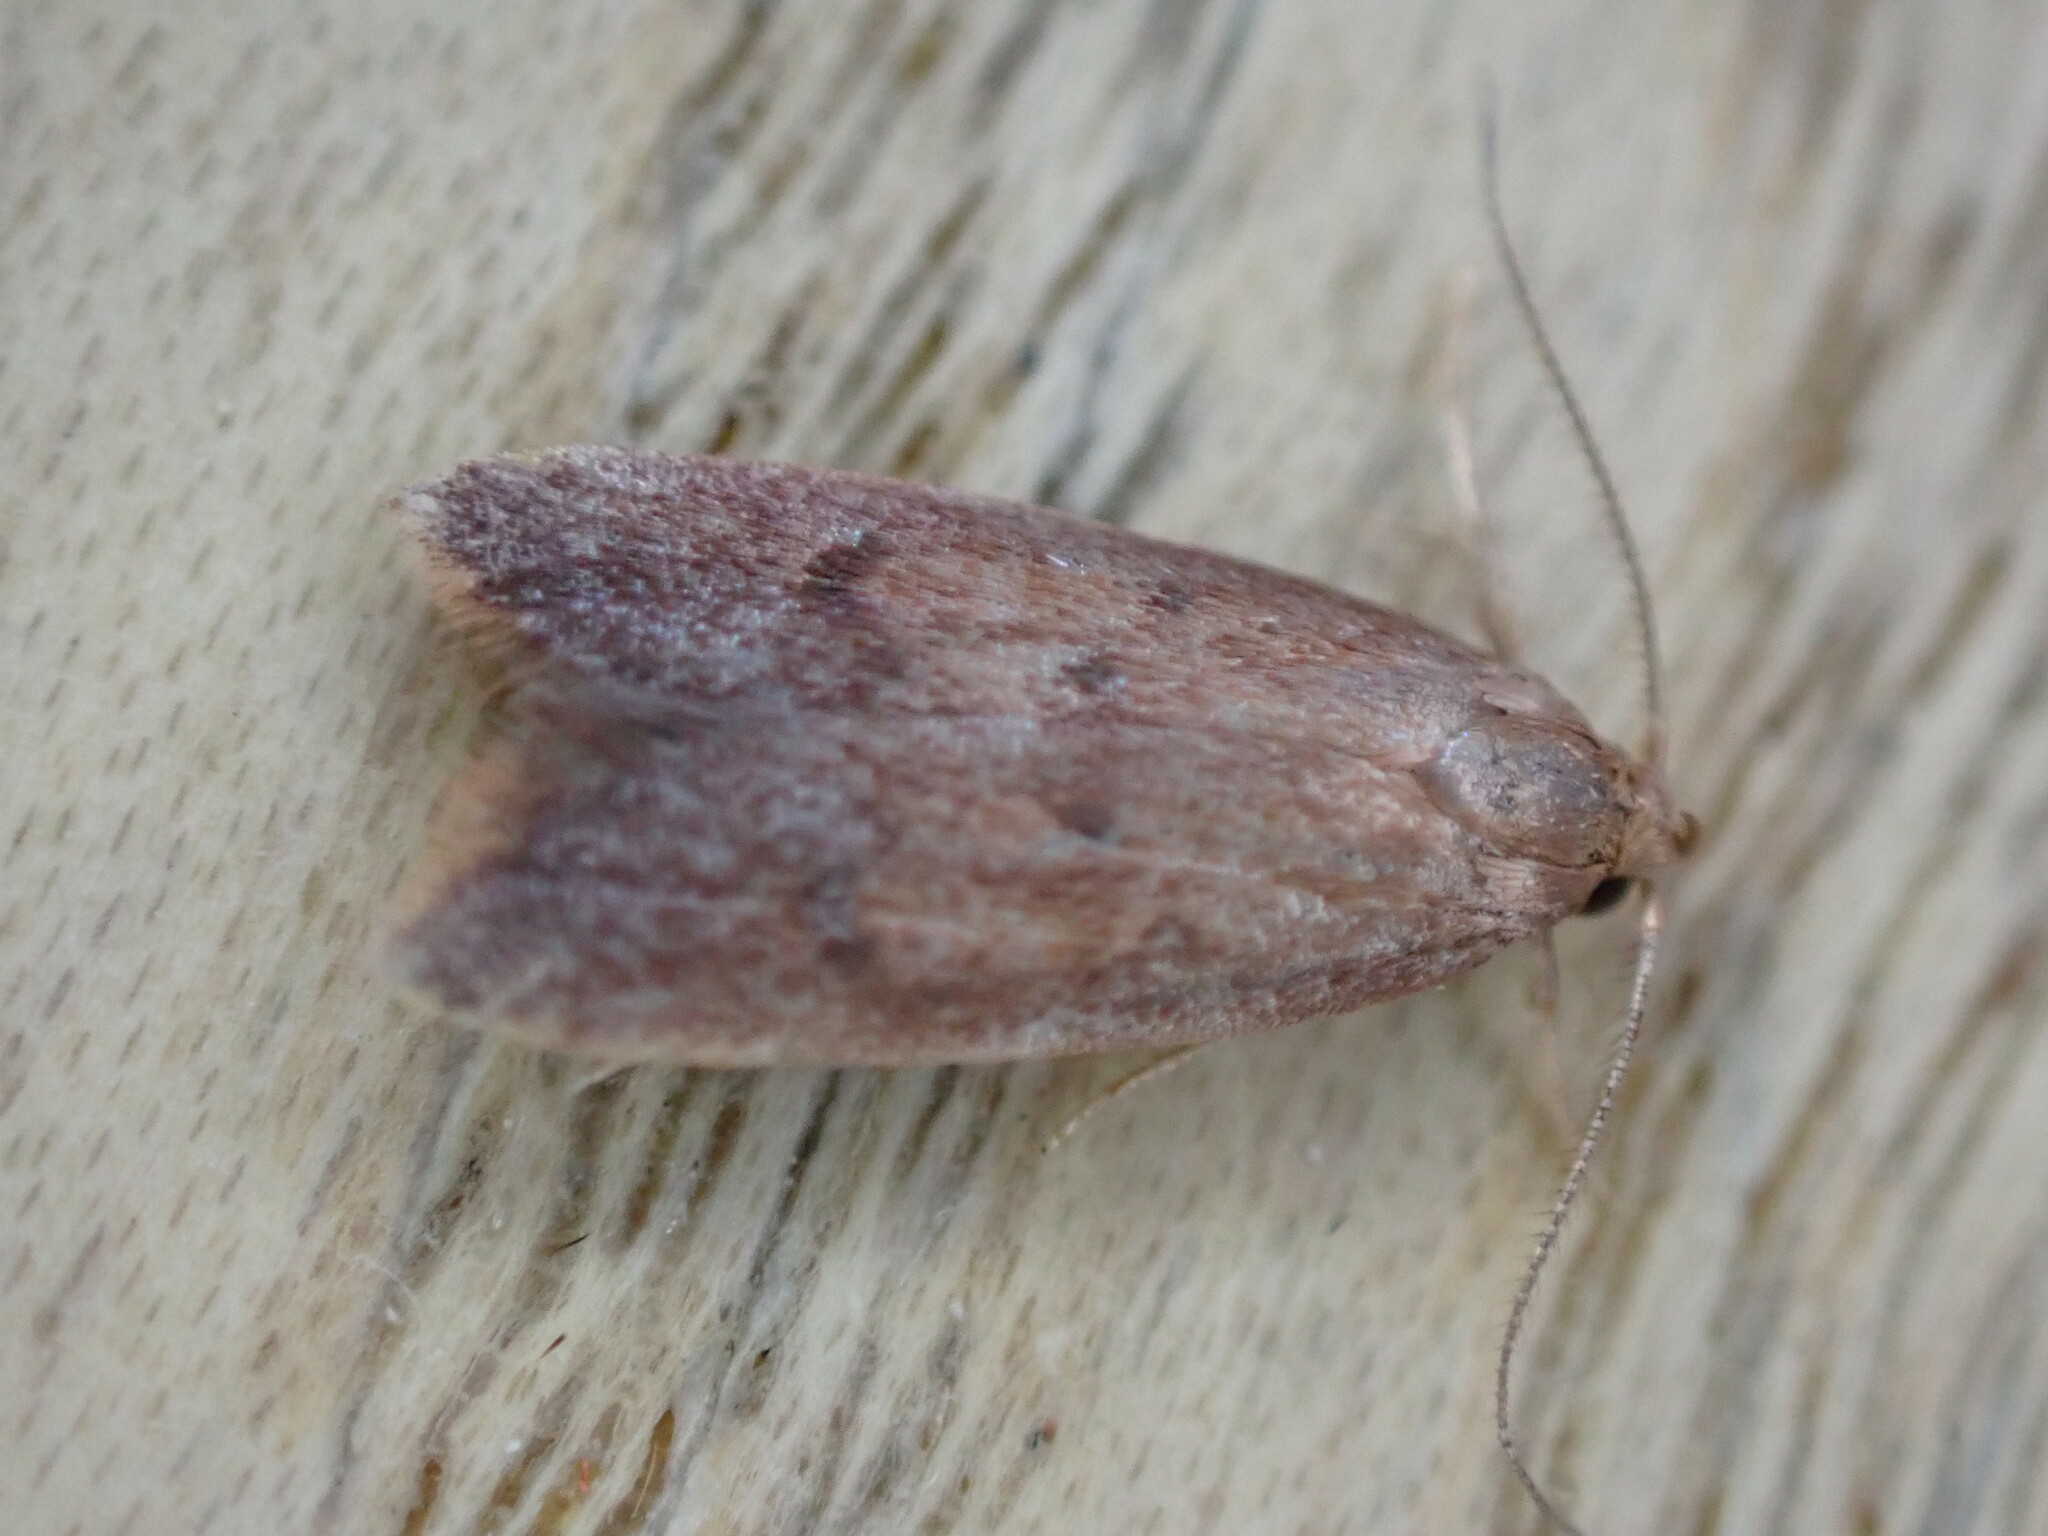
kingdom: Animalia
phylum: Arthropoda
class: Insecta
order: Lepidoptera
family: Oecophoridae
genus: Tachystola
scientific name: Tachystola acroxantha
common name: Ruddy streak
